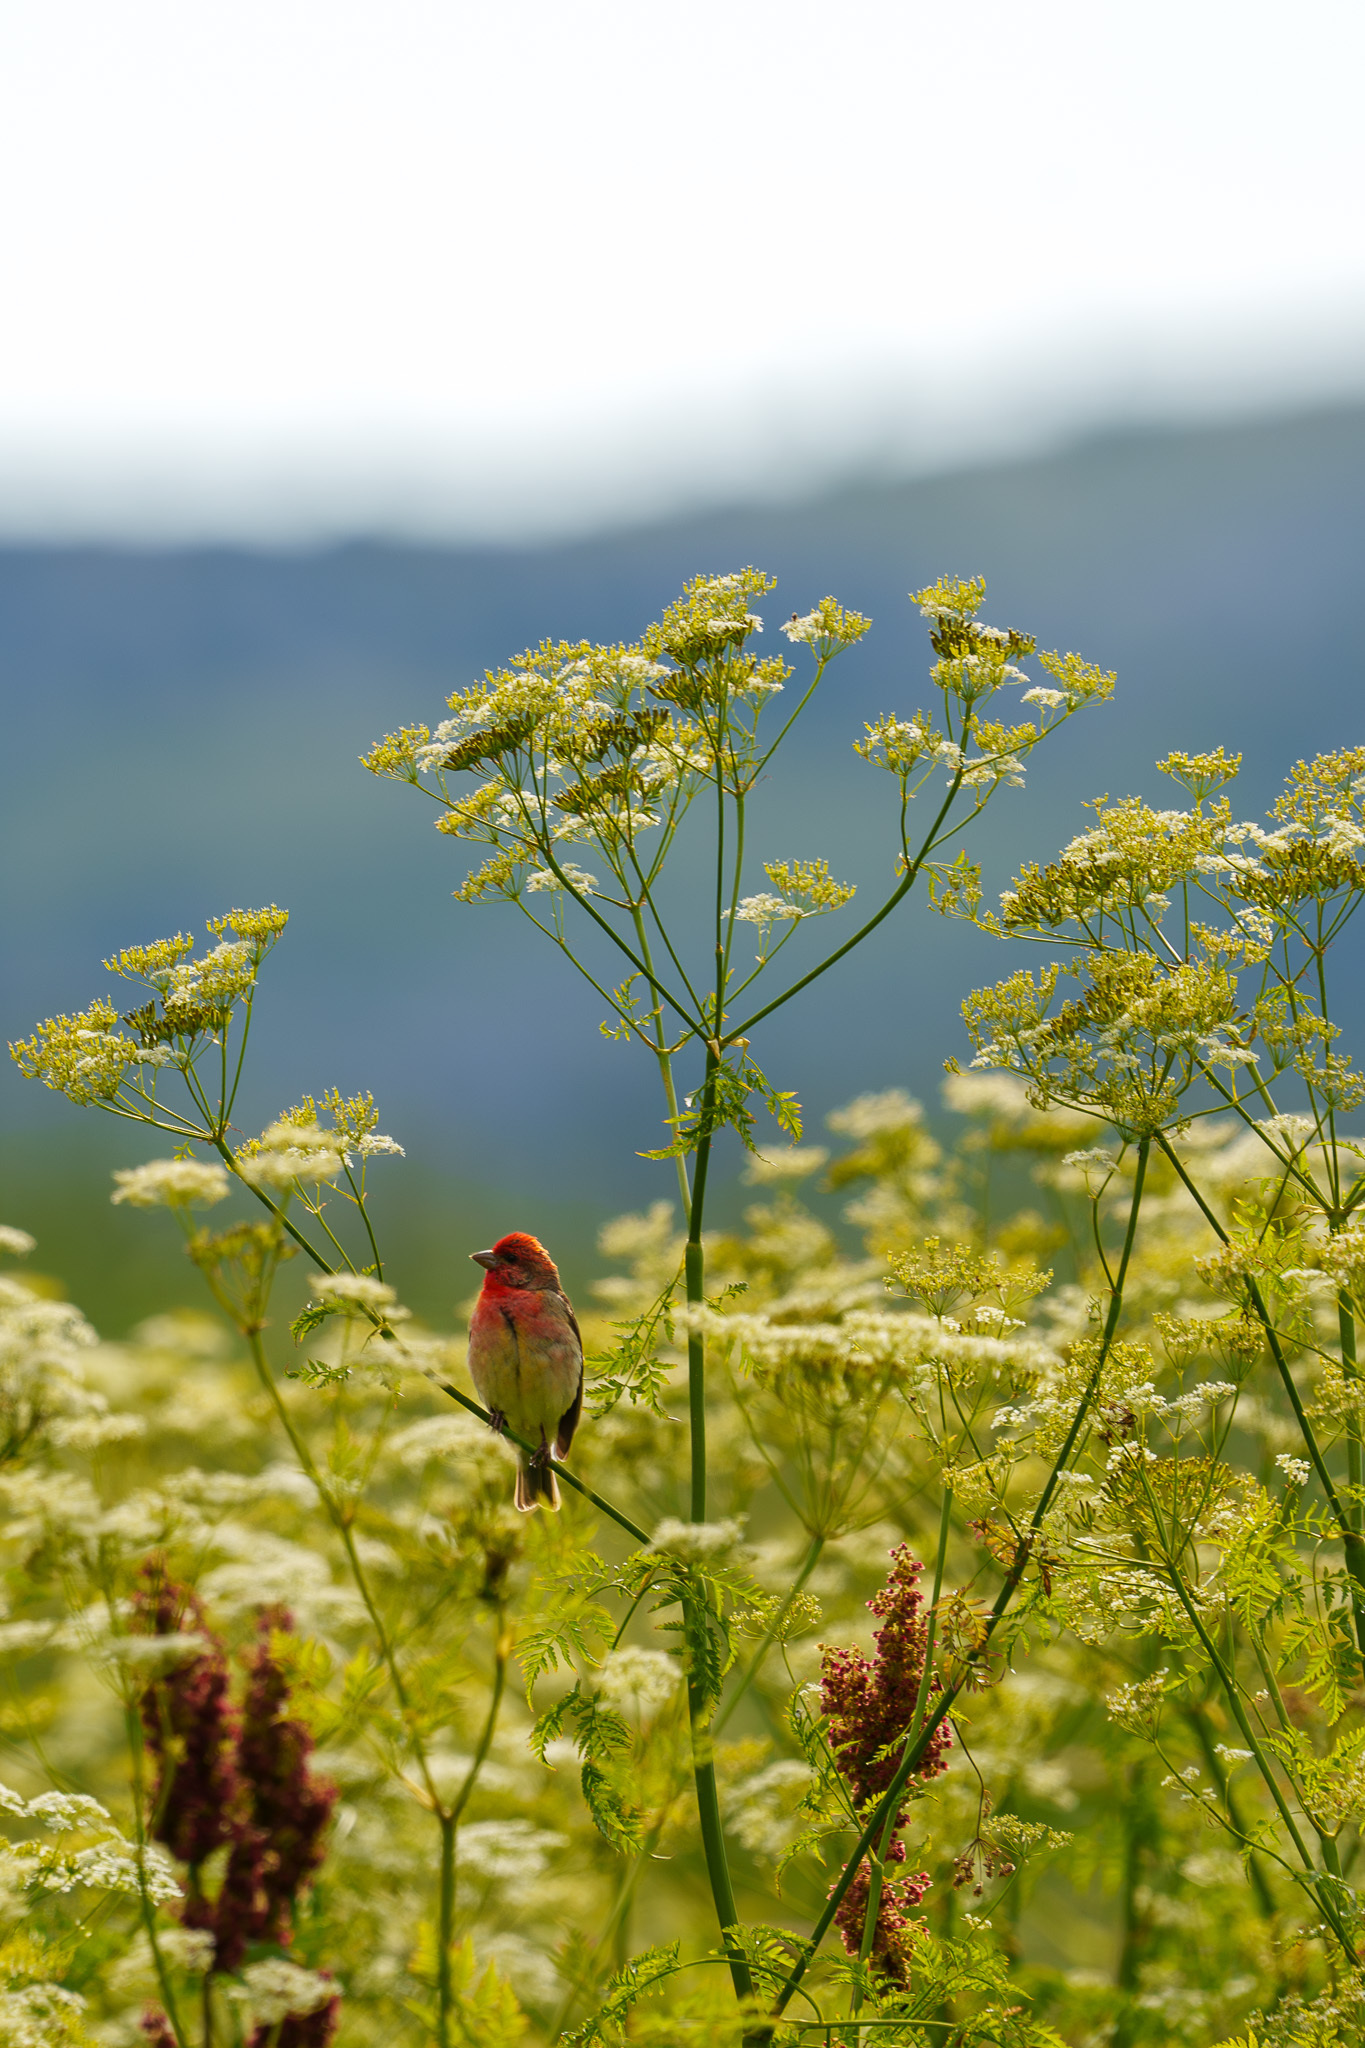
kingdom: Animalia
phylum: Chordata
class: Aves
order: Passeriformes
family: Fringillidae
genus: Carpodacus
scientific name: Carpodacus erythrinus
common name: Common rosefinch
